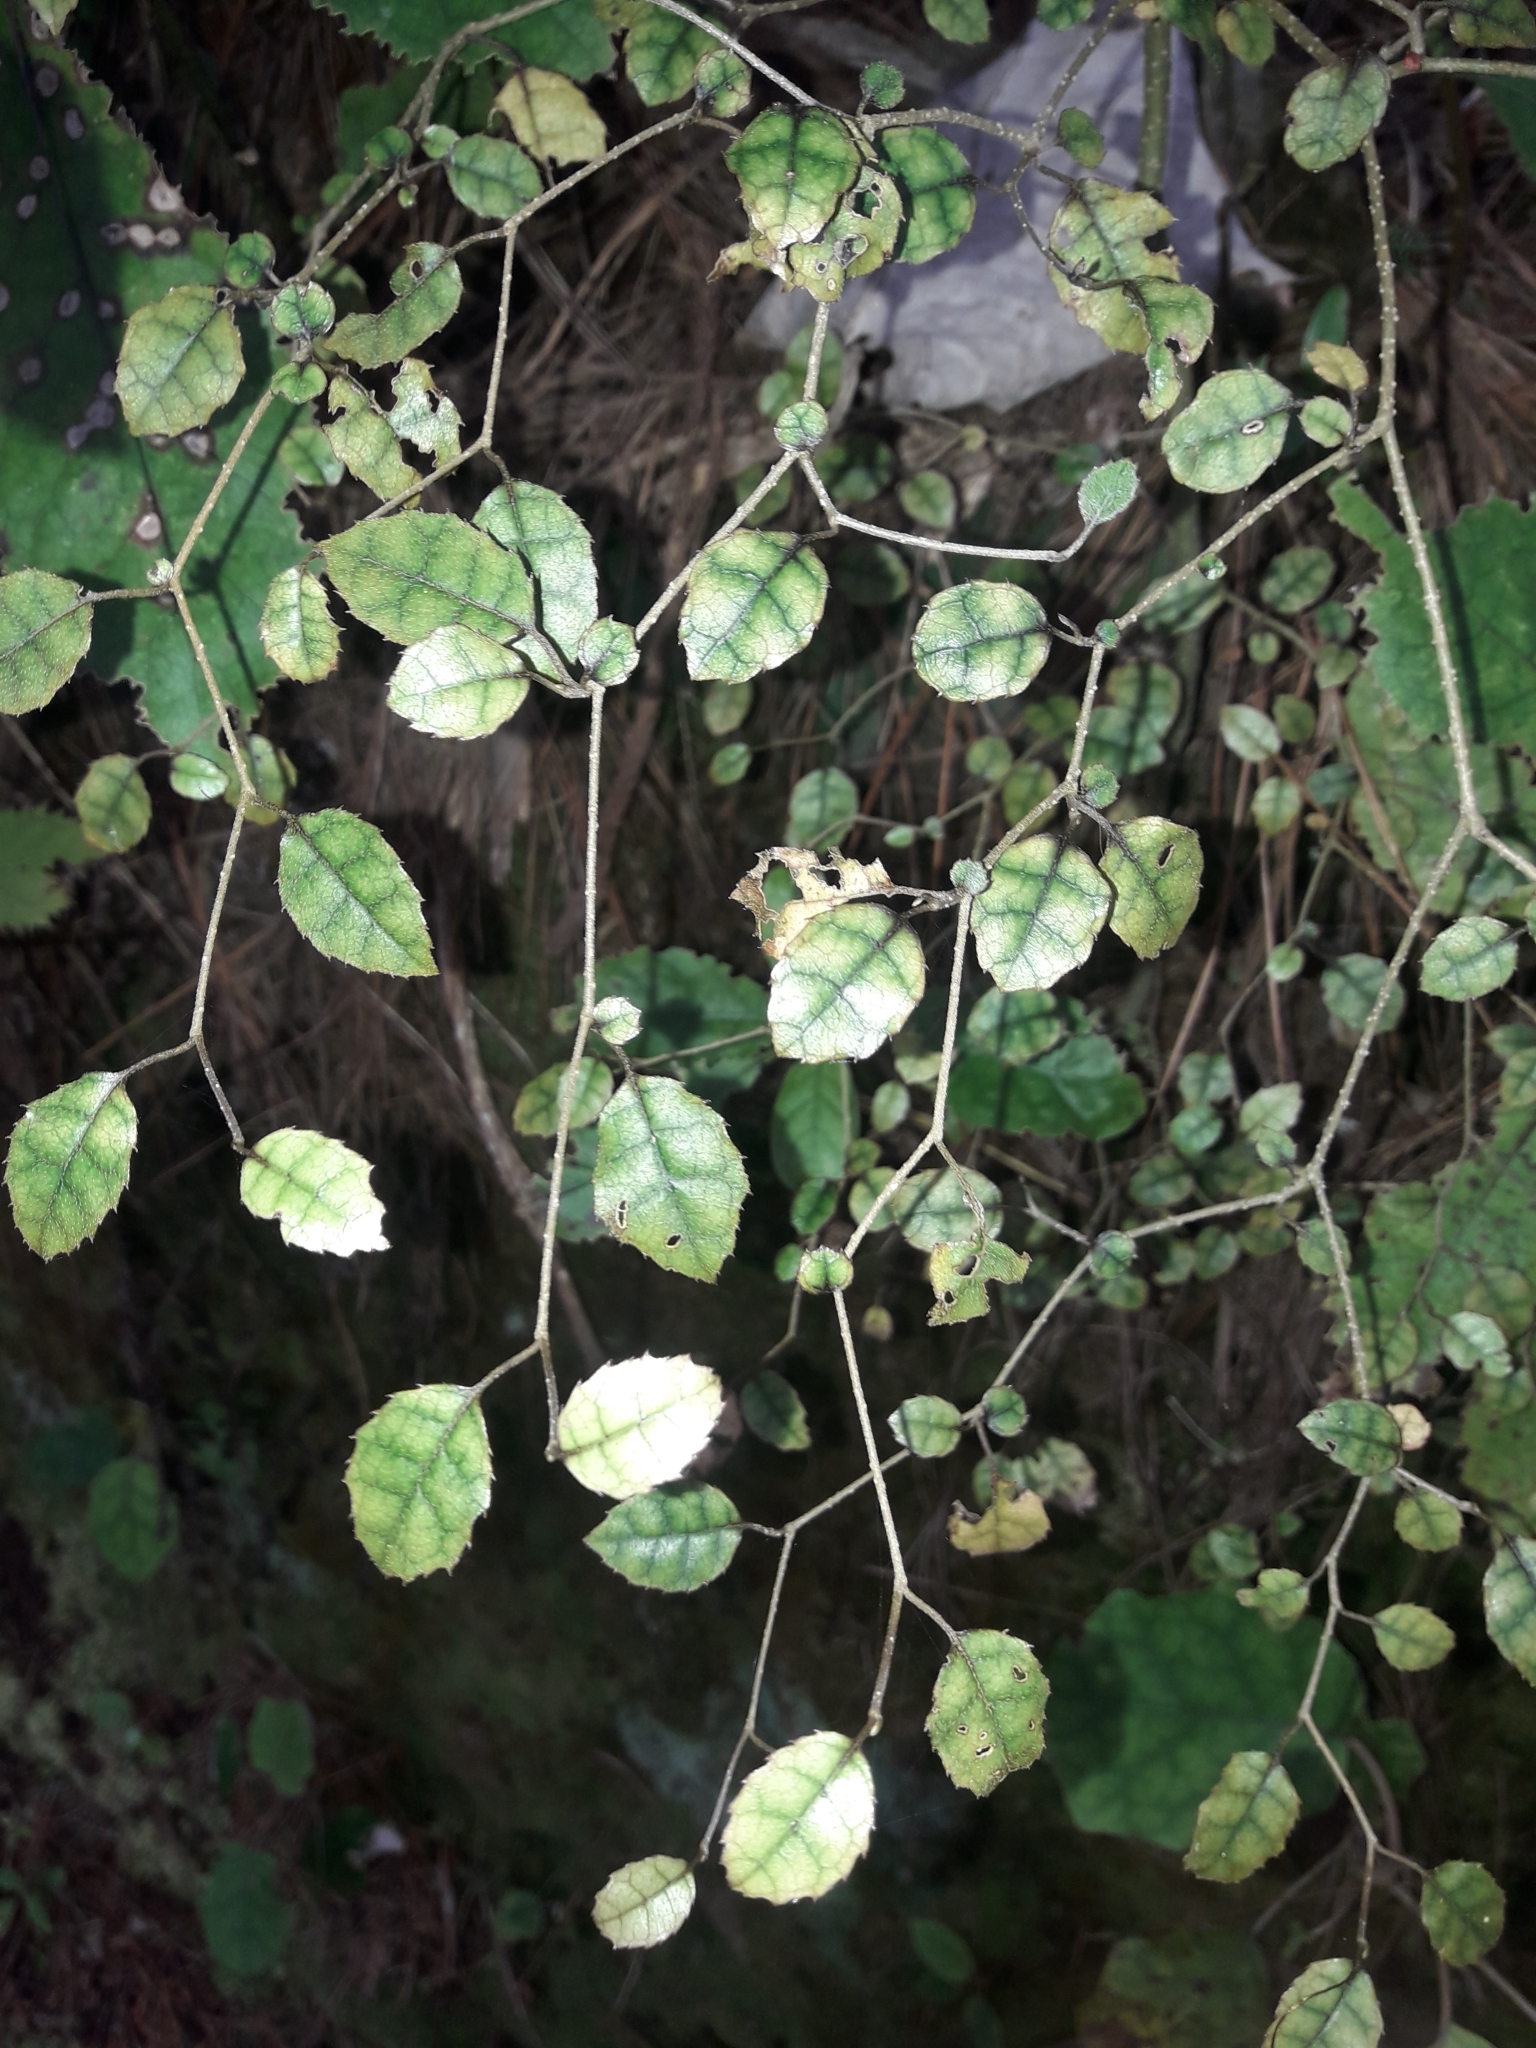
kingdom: Plantae
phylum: Tracheophyta
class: Magnoliopsida
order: Asterales
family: Rousseaceae
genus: Carpodetus
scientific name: Carpodetus serratus
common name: White mapau
